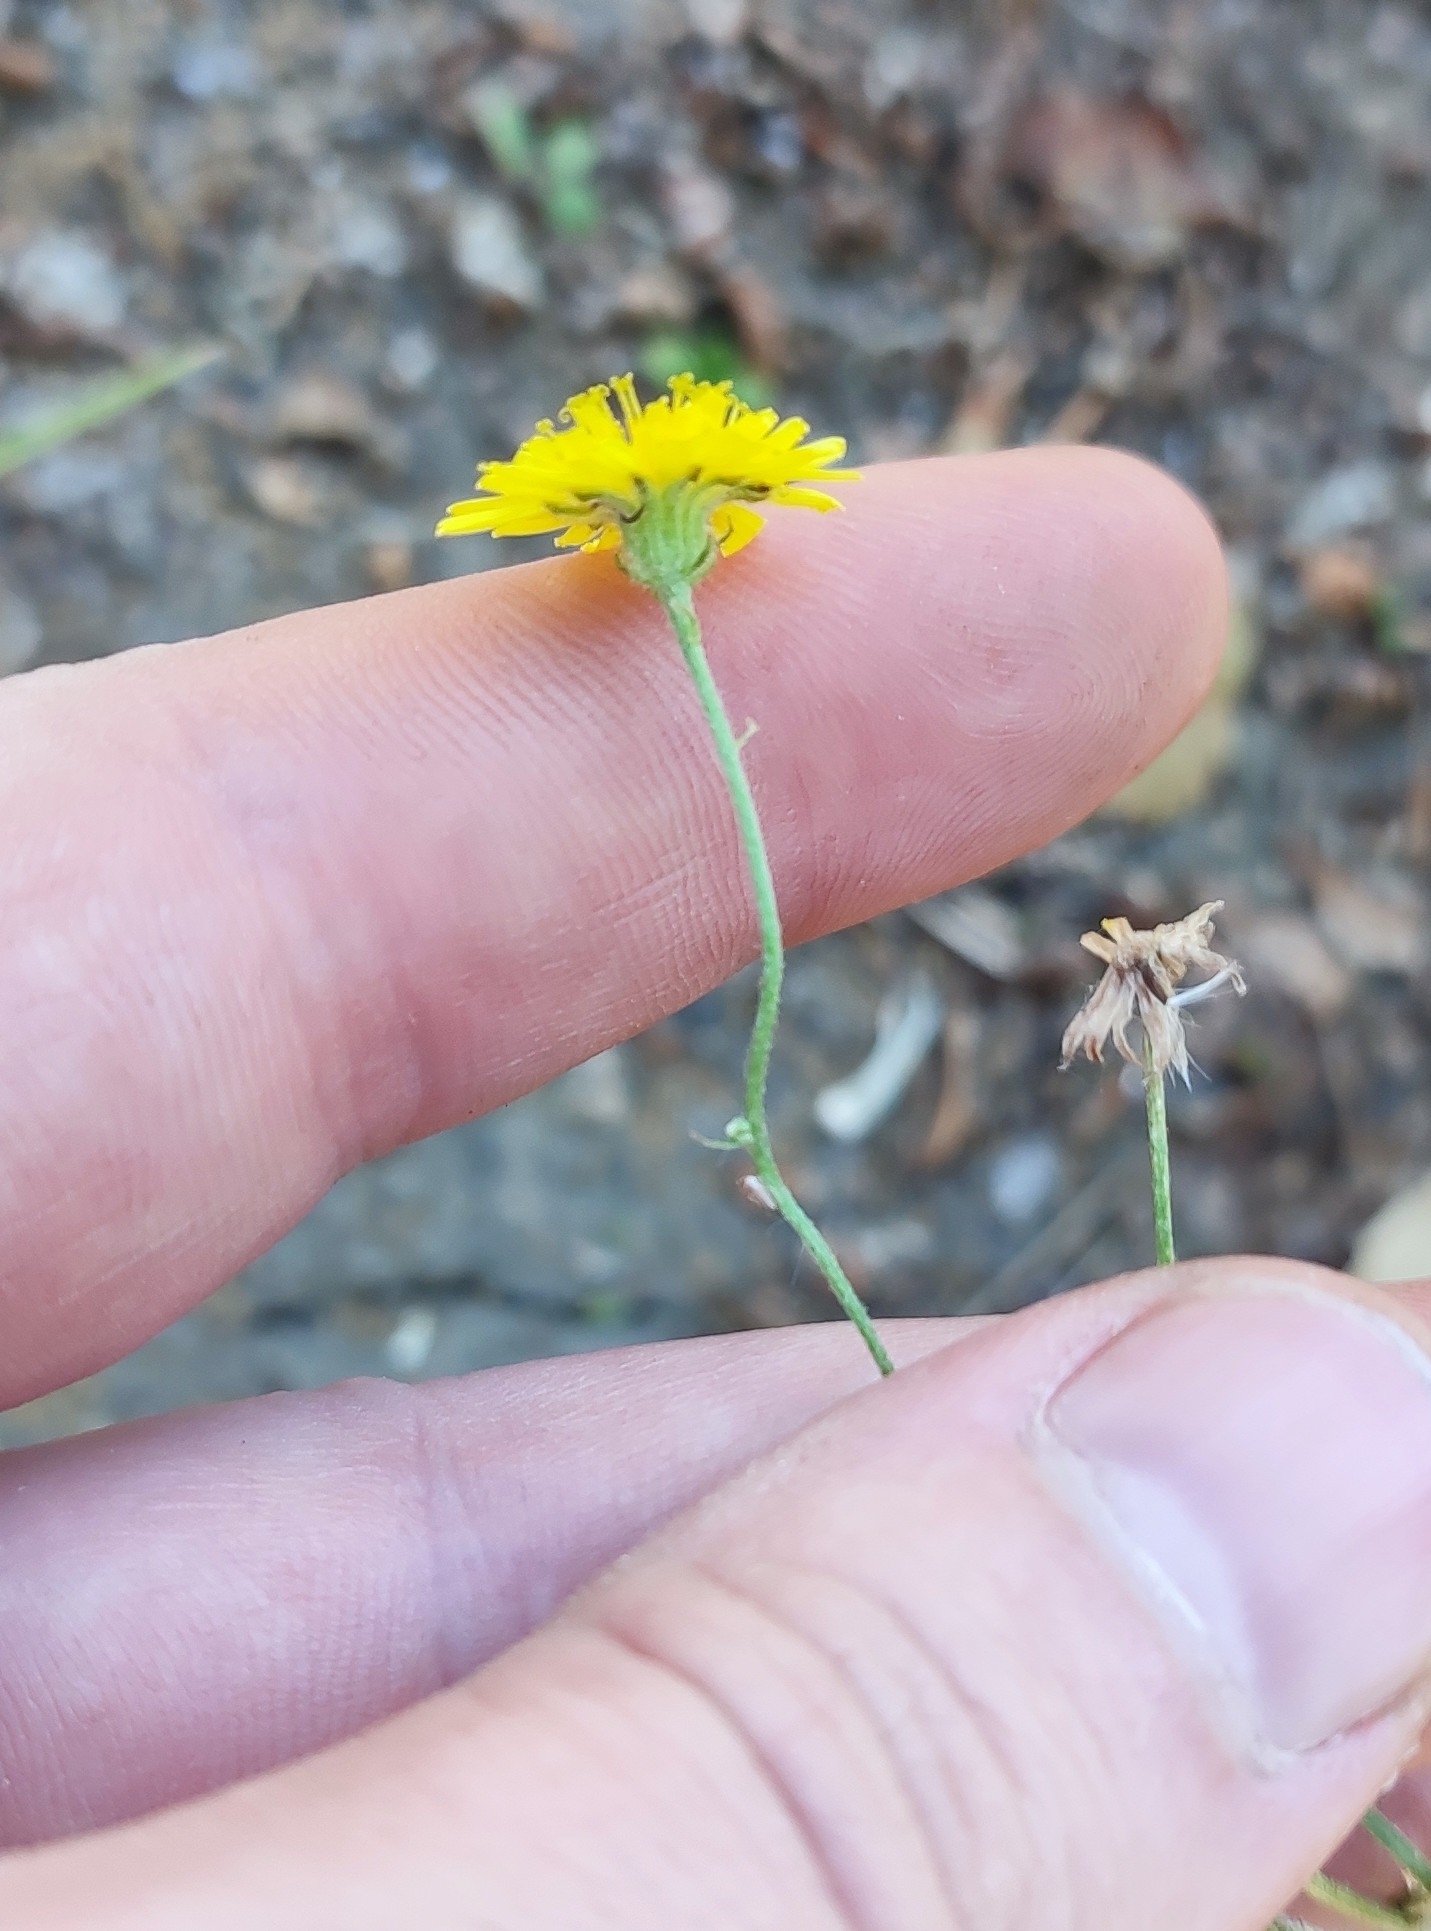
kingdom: Plantae
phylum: Tracheophyta
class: Magnoliopsida
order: Asterales
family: Asteraceae
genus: Crepis
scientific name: Crepis tectorum
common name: Narrow-leaved hawk's-beard
